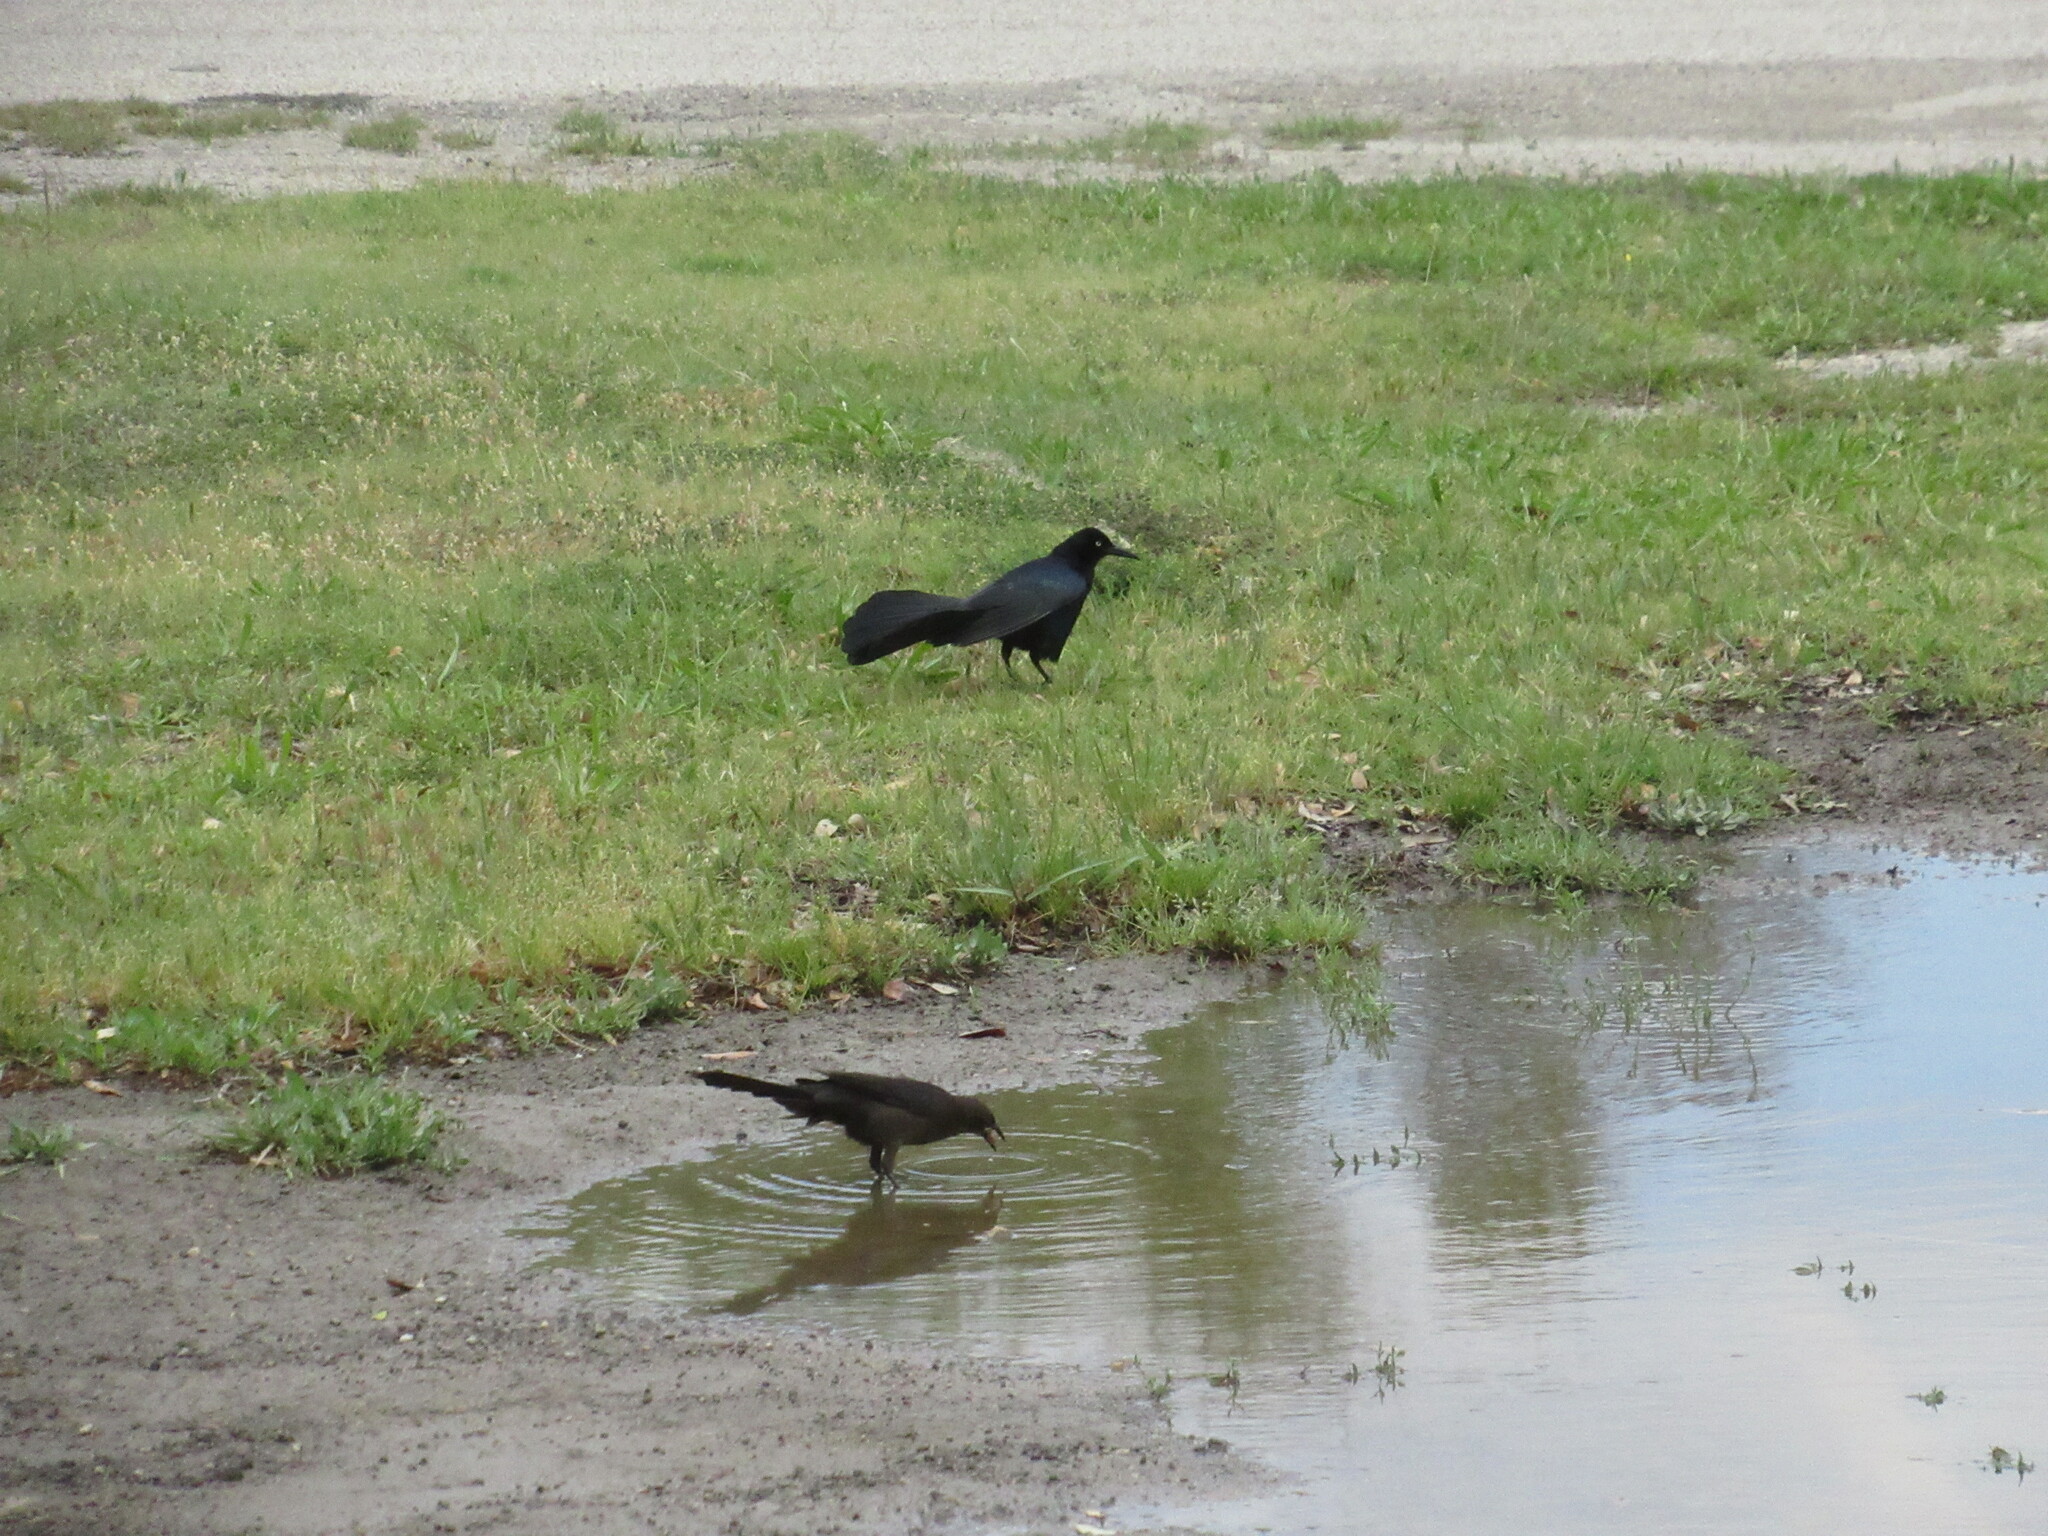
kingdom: Animalia
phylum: Chordata
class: Aves
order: Passeriformes
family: Icteridae
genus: Quiscalus
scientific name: Quiscalus mexicanus
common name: Great-tailed grackle
